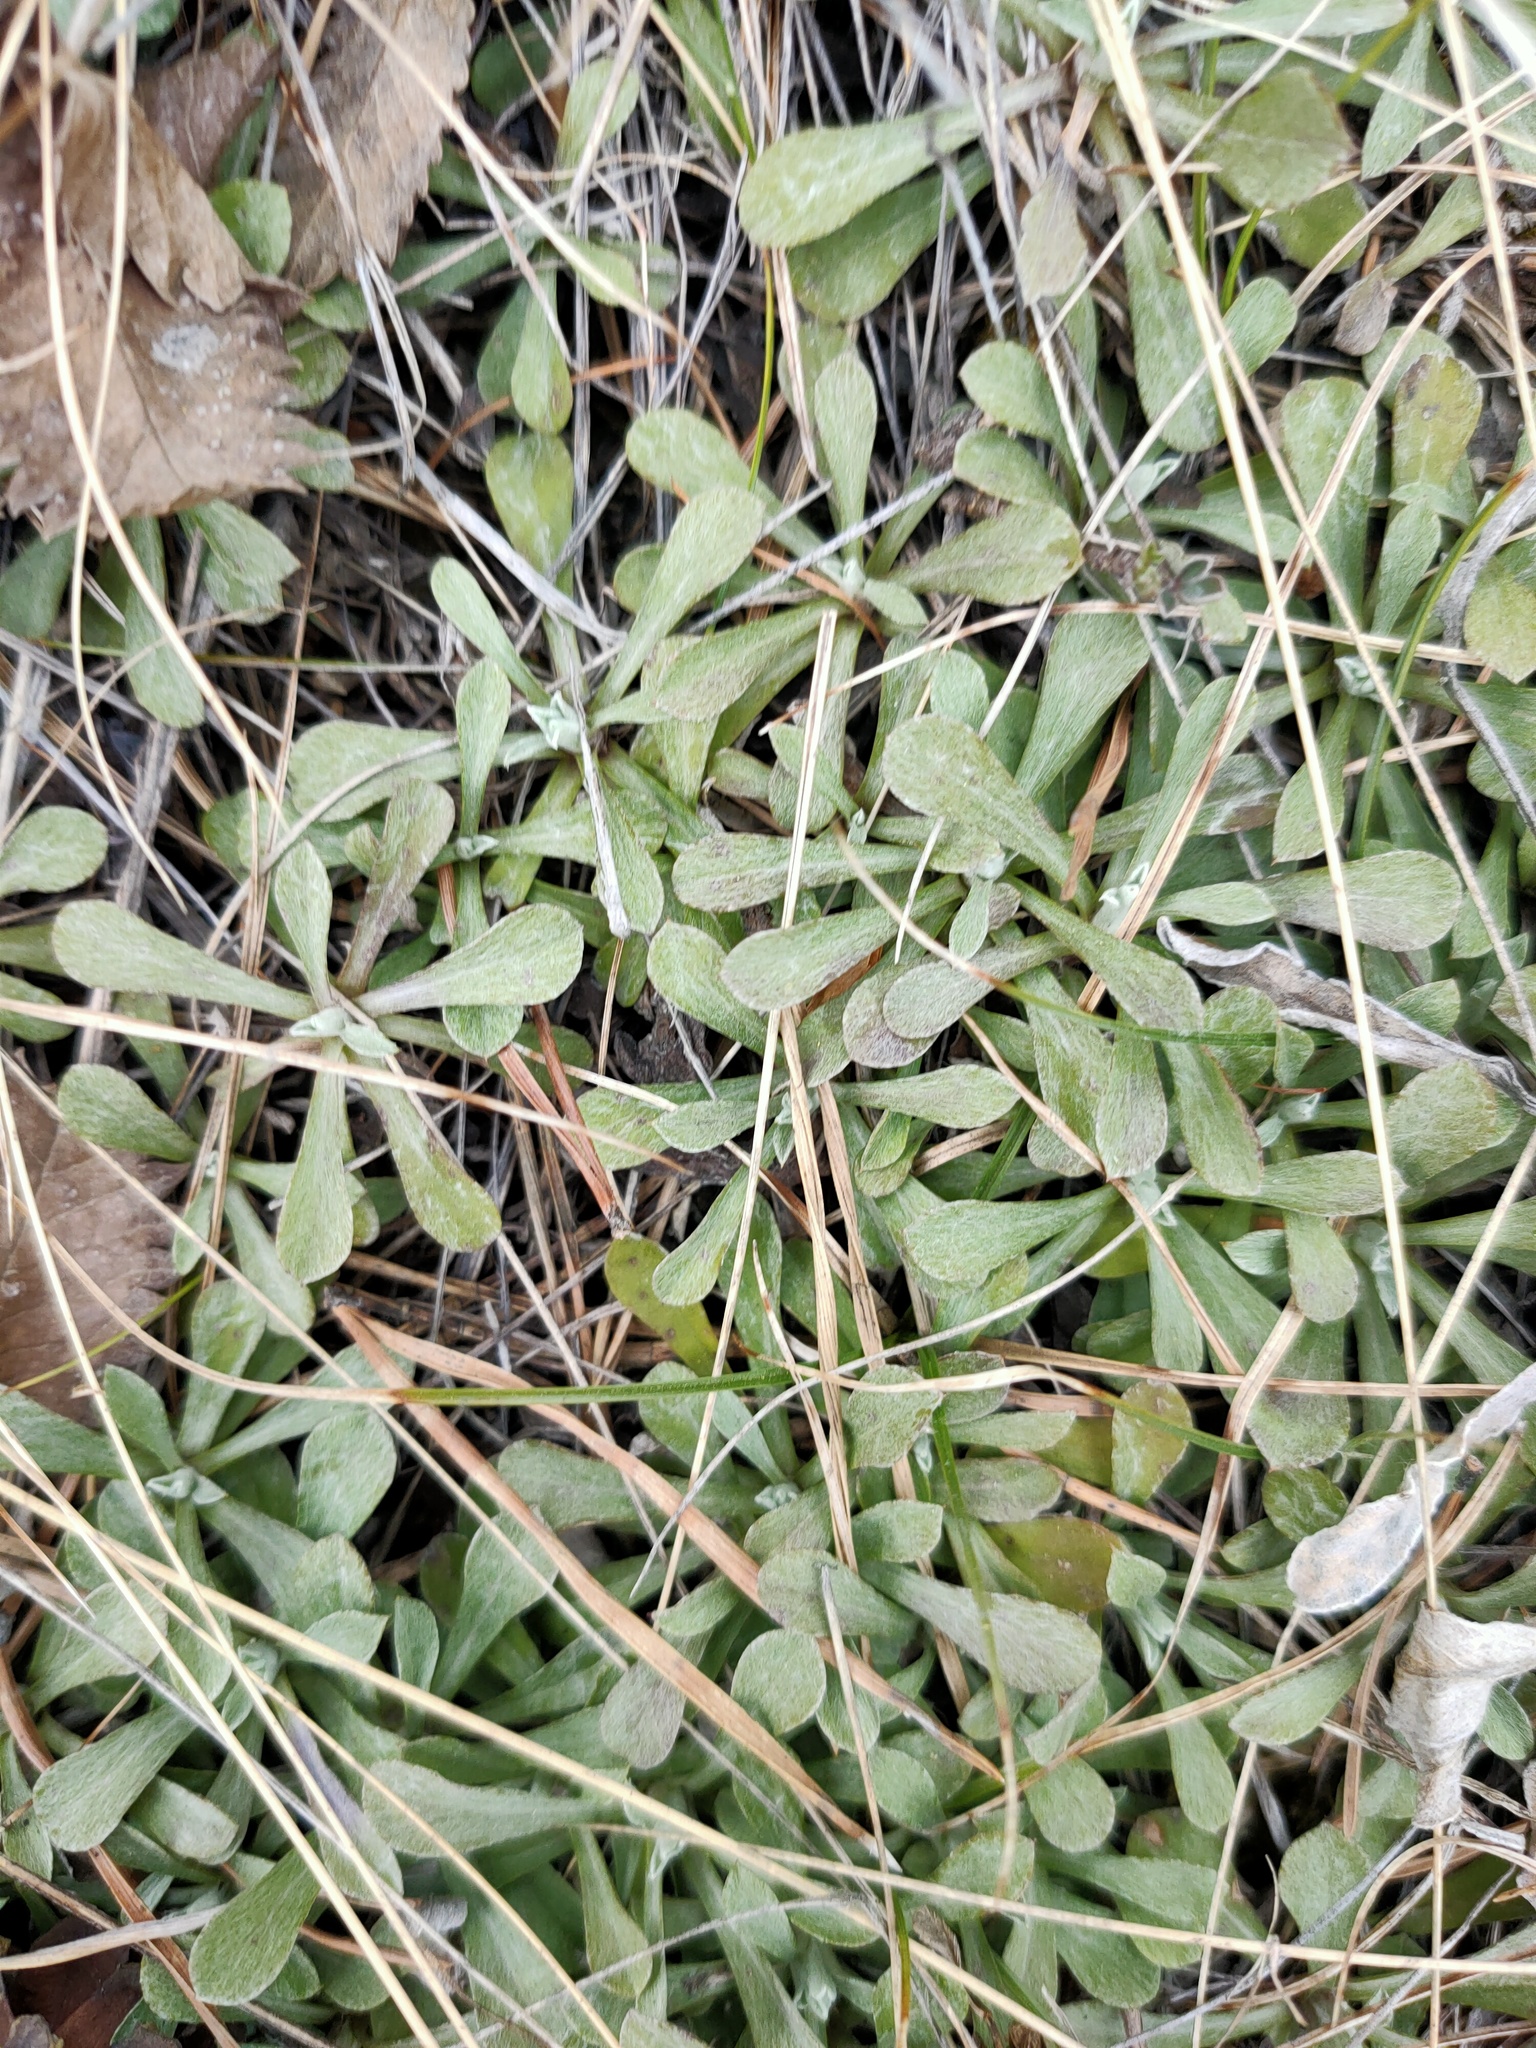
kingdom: Plantae
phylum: Tracheophyta
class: Magnoliopsida
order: Asterales
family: Asteraceae
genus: Antennaria
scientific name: Antennaria dioica
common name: Mountain everlasting
